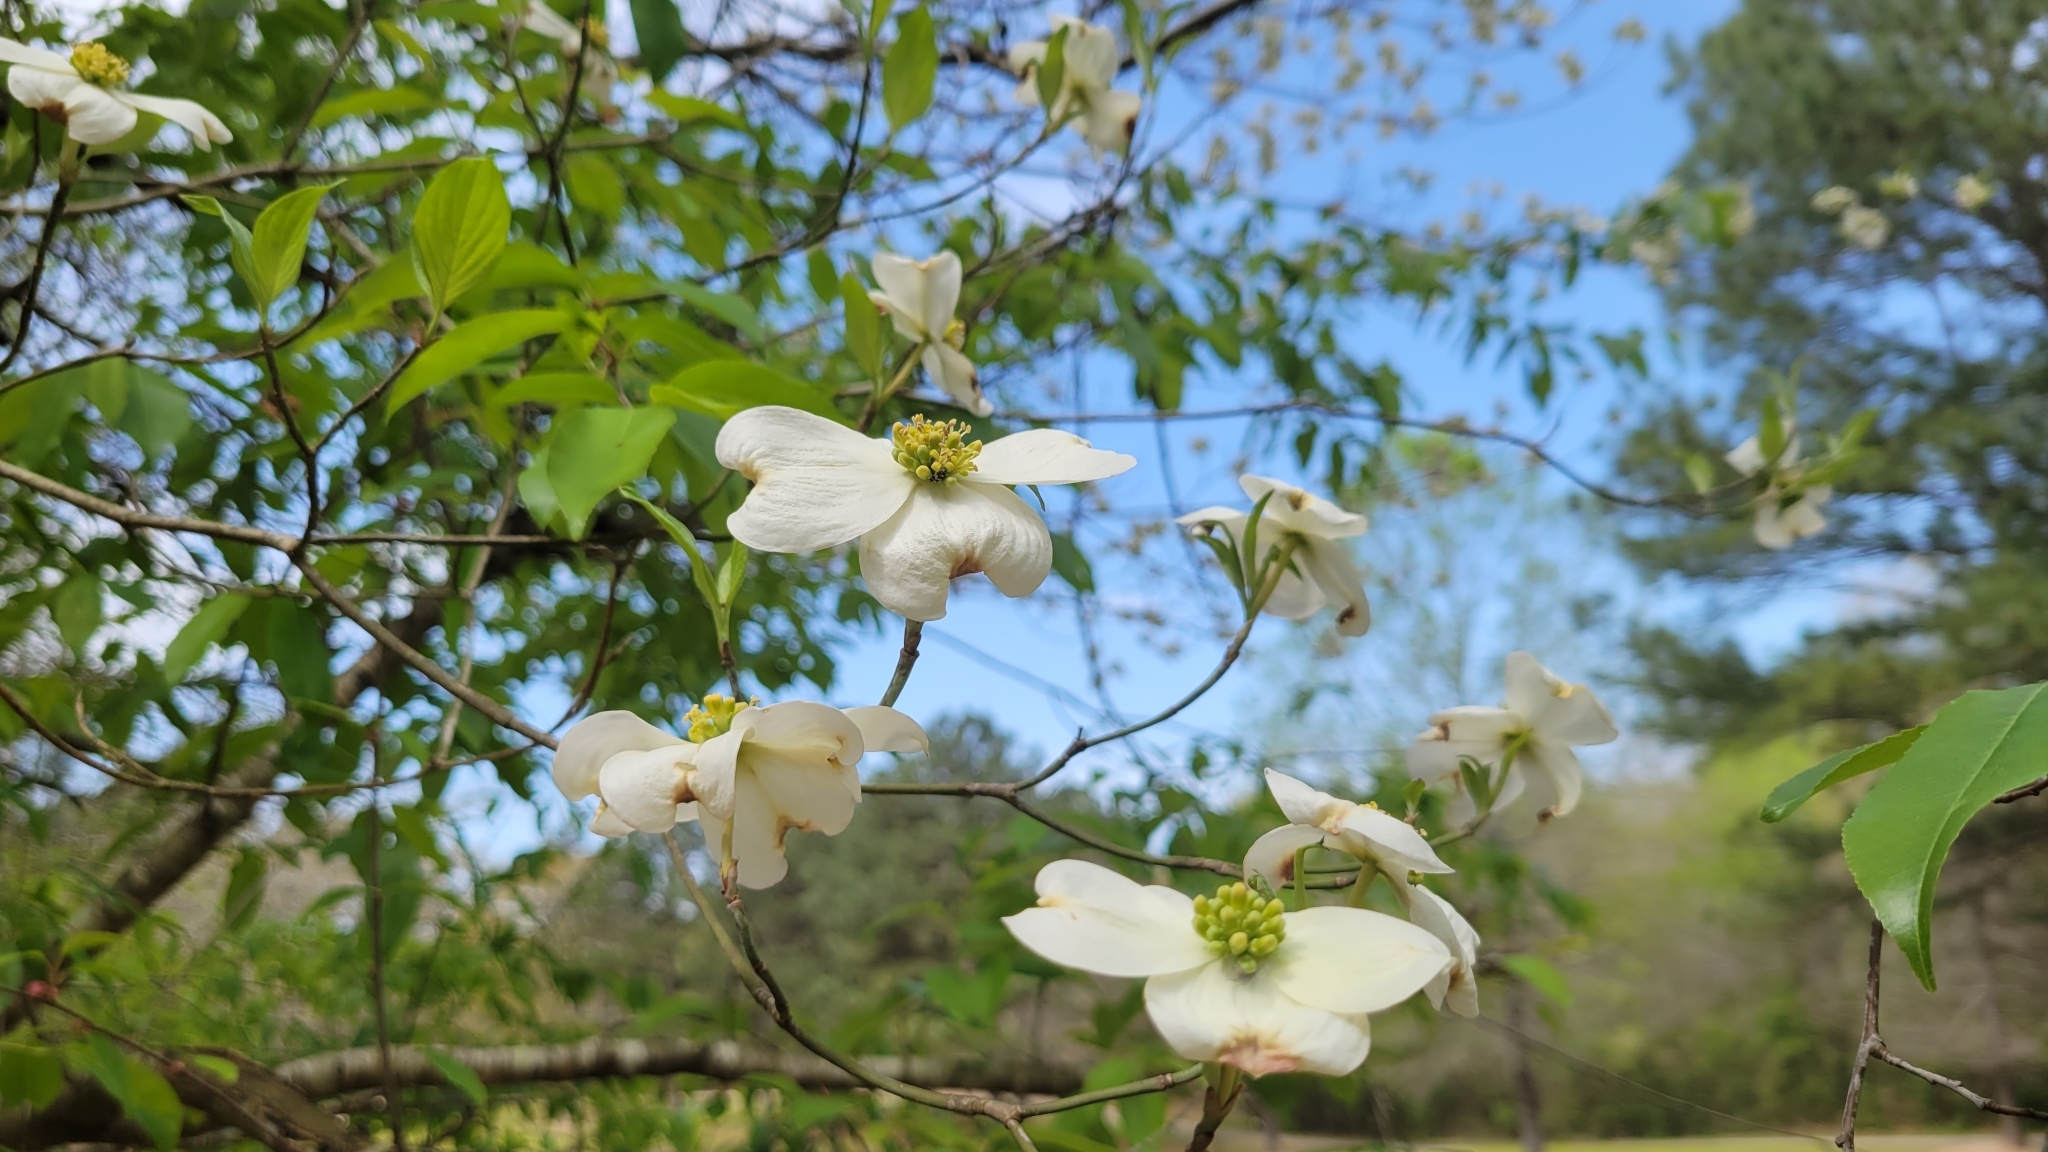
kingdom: Plantae
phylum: Tracheophyta
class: Magnoliopsida
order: Cornales
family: Cornaceae
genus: Cornus
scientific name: Cornus florida
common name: Flowering dogwood
